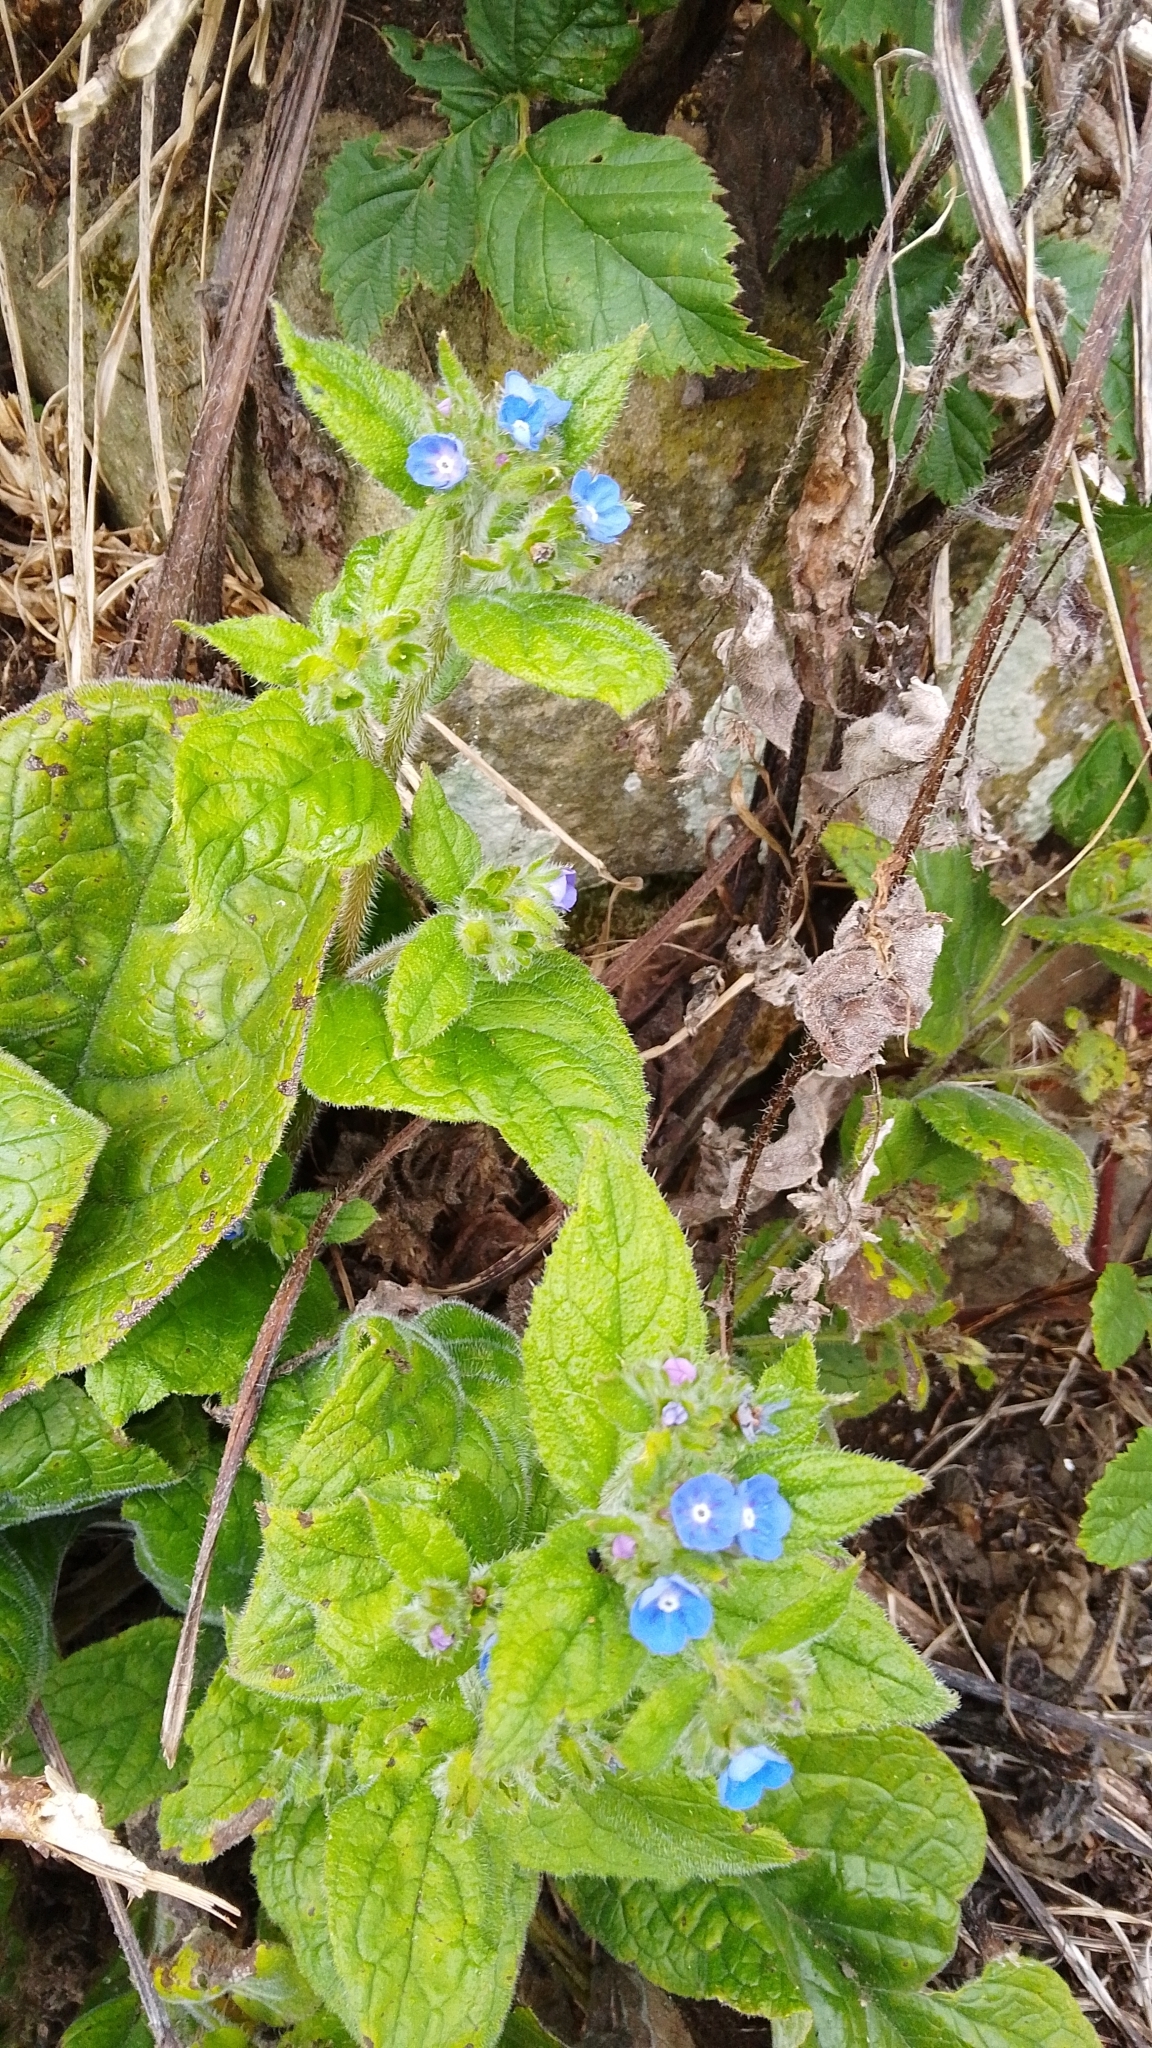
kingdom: Plantae
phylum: Tracheophyta
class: Magnoliopsida
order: Boraginales
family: Boraginaceae
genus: Pentaglottis
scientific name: Pentaglottis sempervirens
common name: Green alkanet
